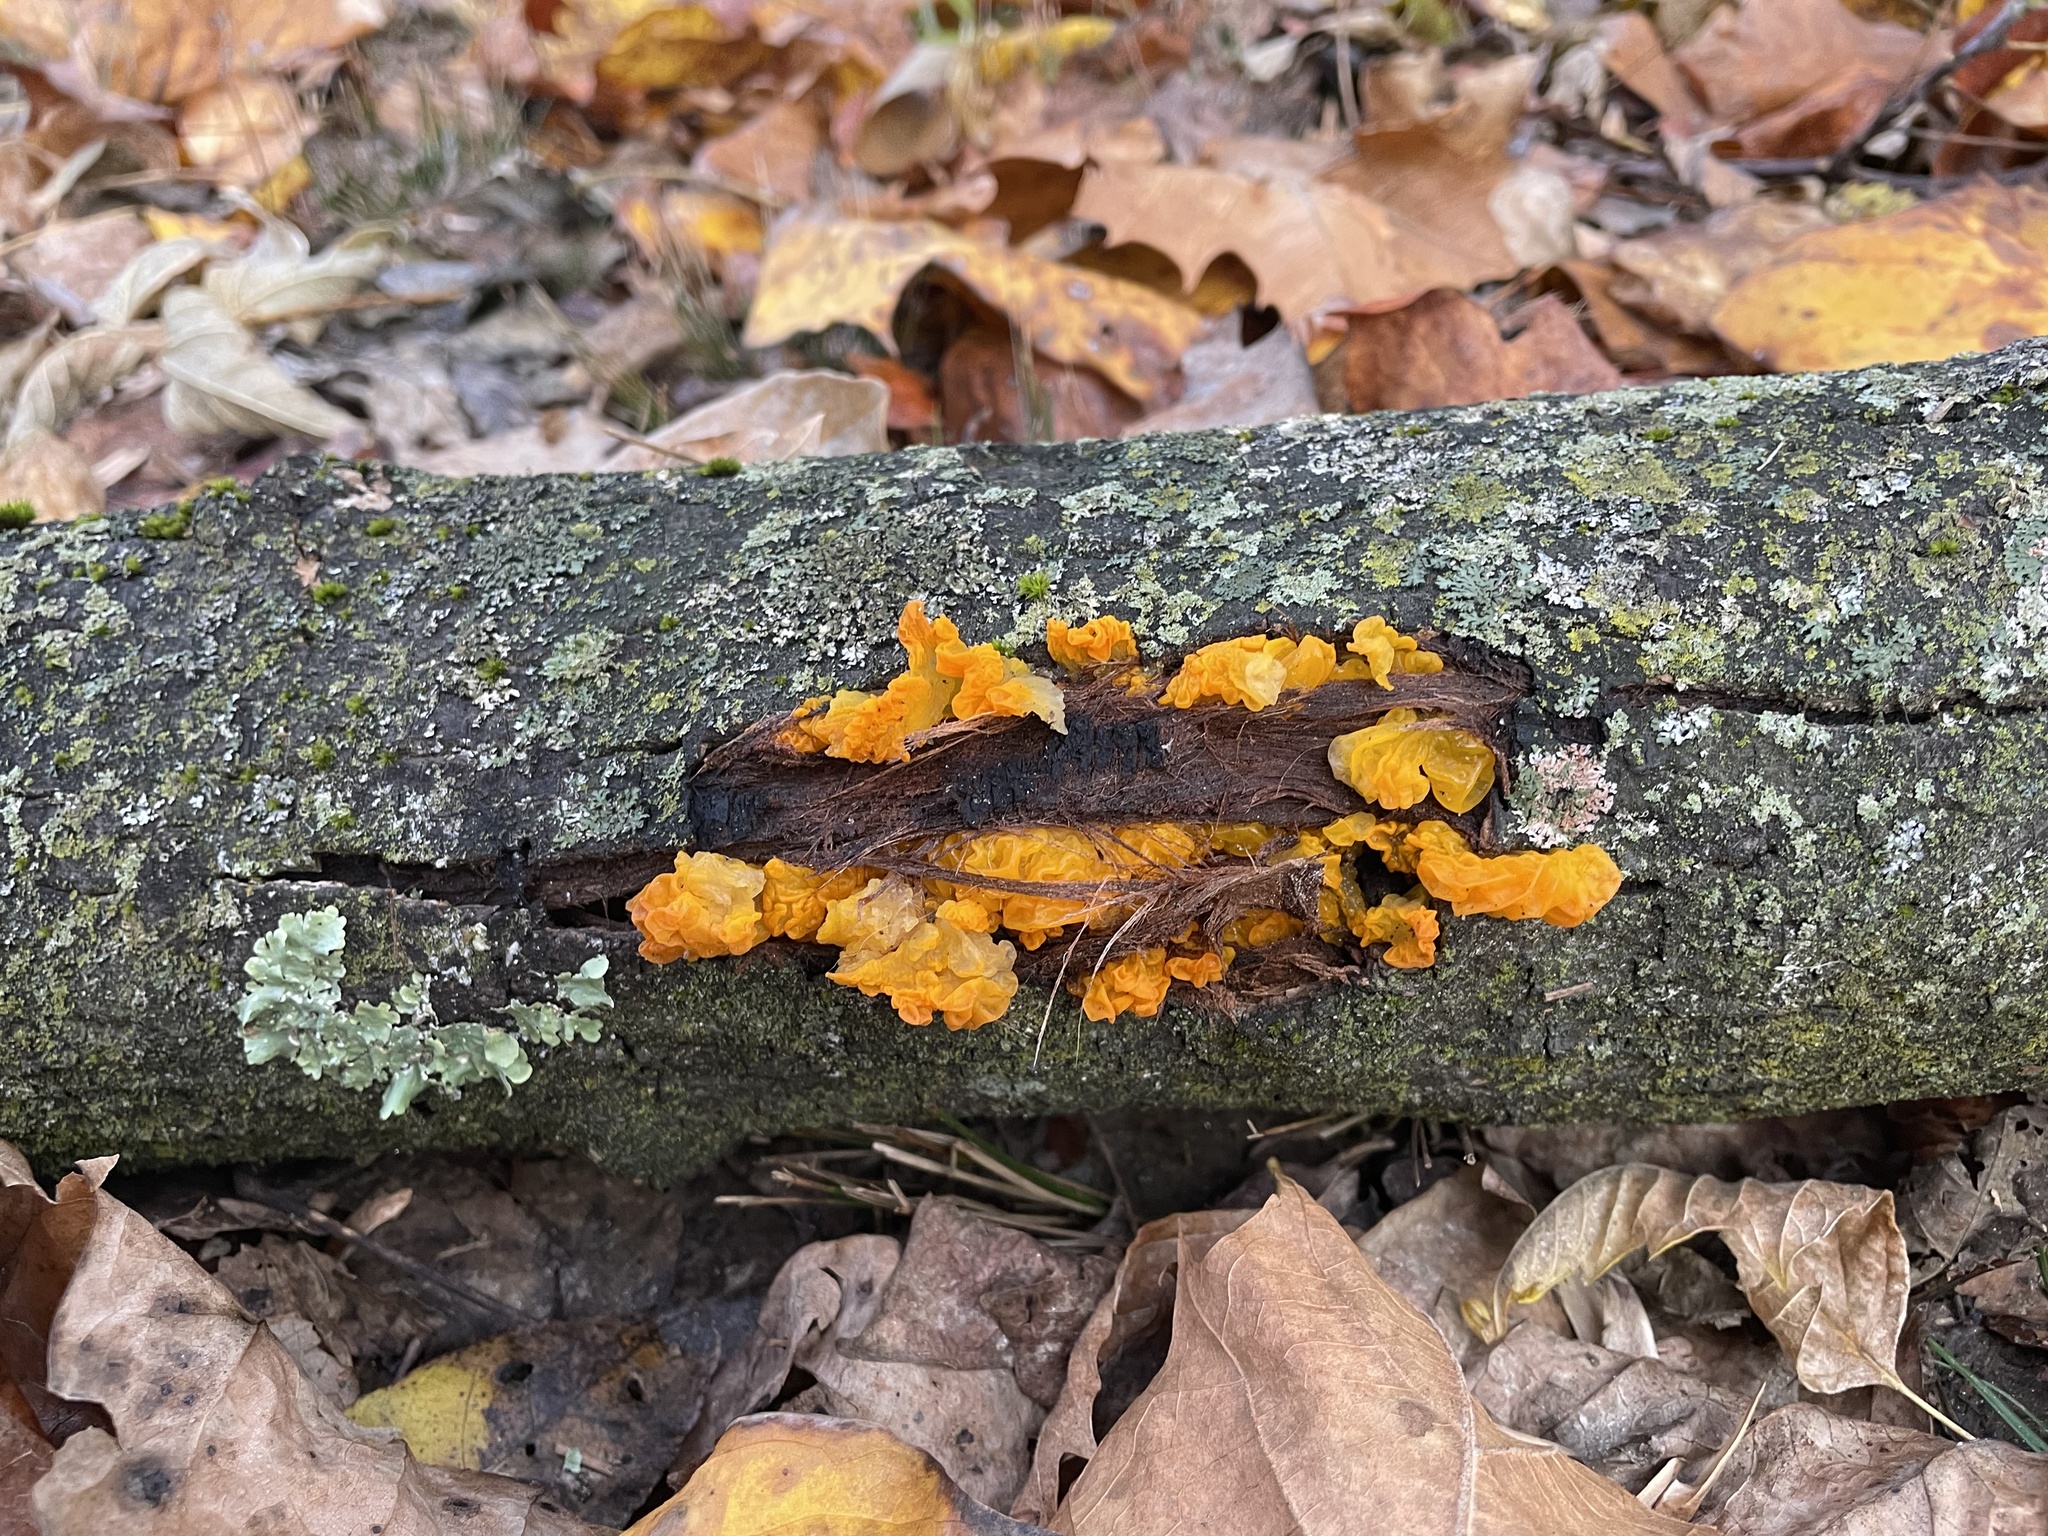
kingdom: Fungi
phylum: Basidiomycota
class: Tremellomycetes
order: Tremellales
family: Tremellaceae
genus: Tremella
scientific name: Tremella mesenterica
